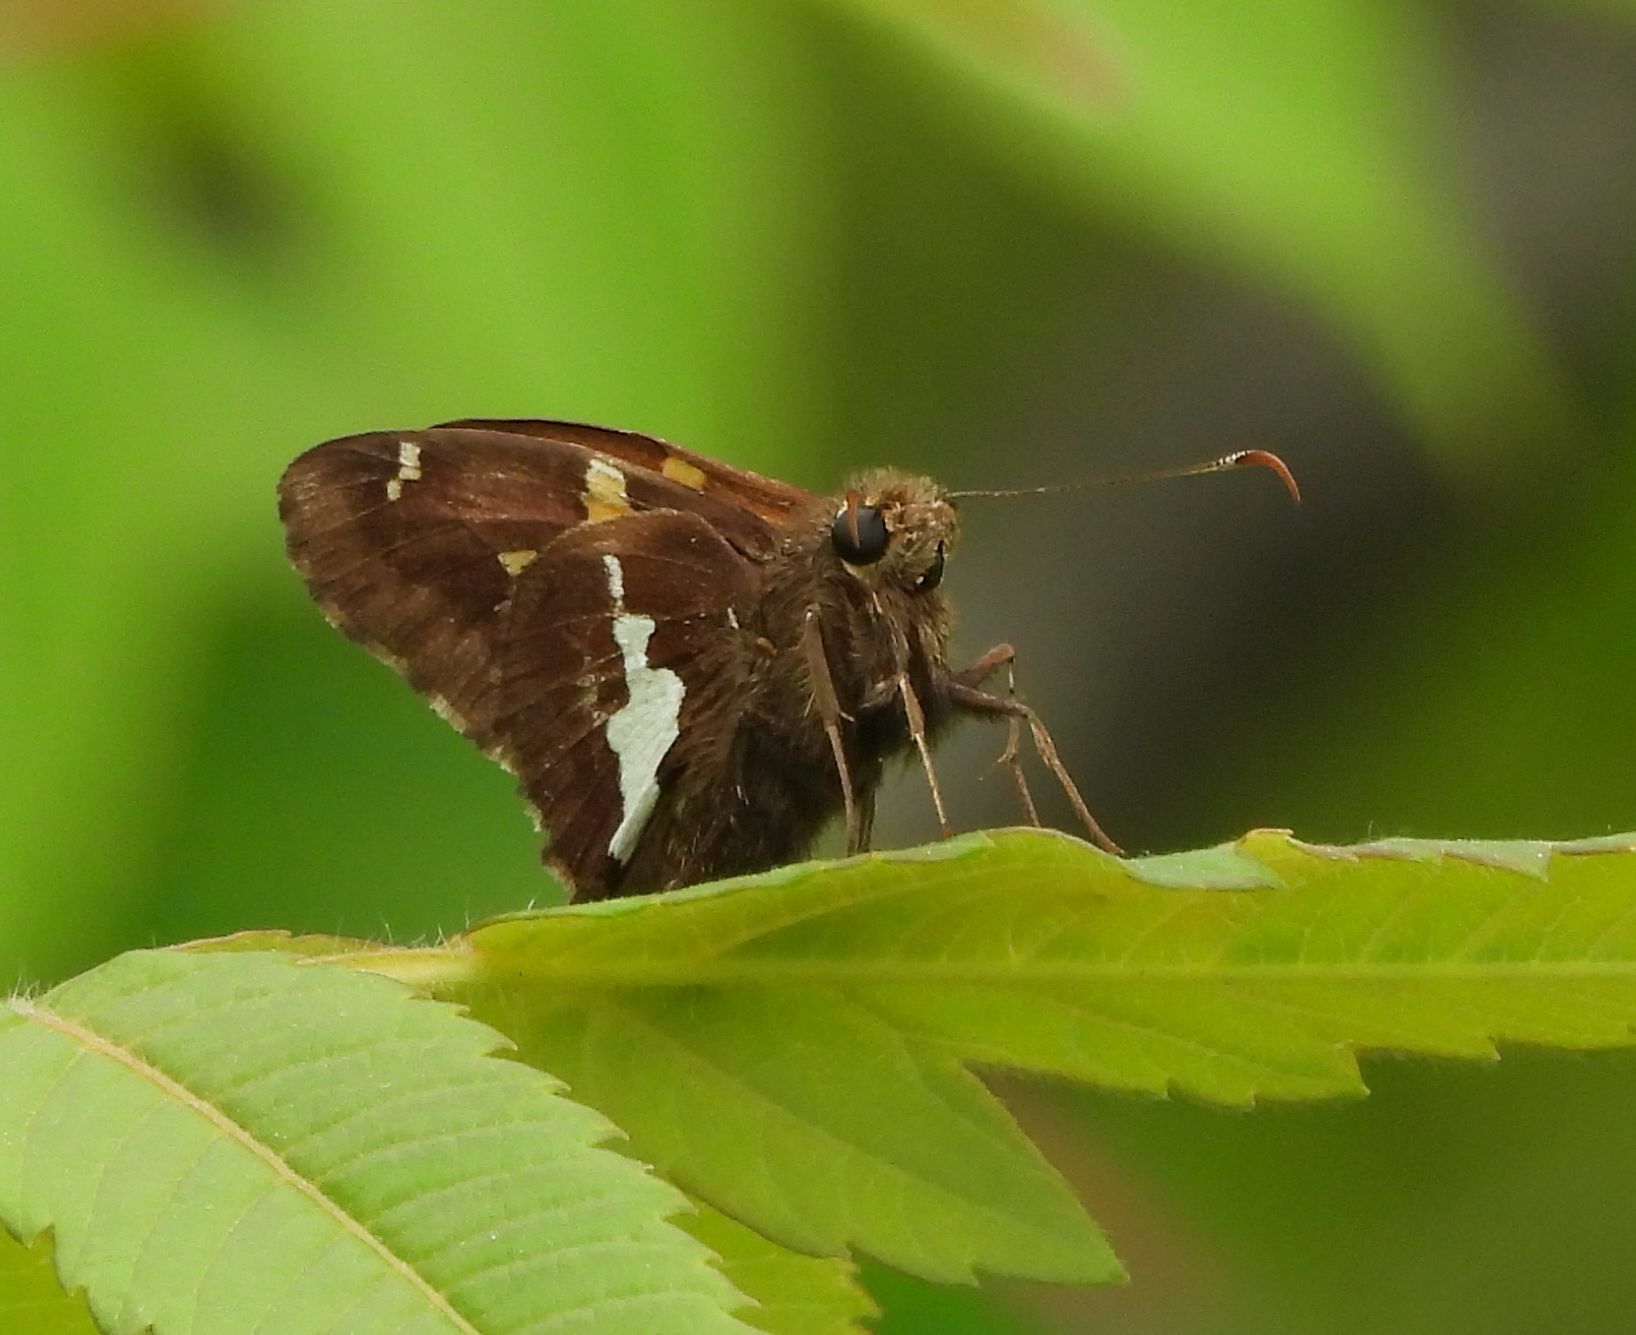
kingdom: Animalia
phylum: Arthropoda
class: Insecta
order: Lepidoptera
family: Hesperiidae
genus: Epargyreus
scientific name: Epargyreus clarus
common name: Silver-spotted skipper
